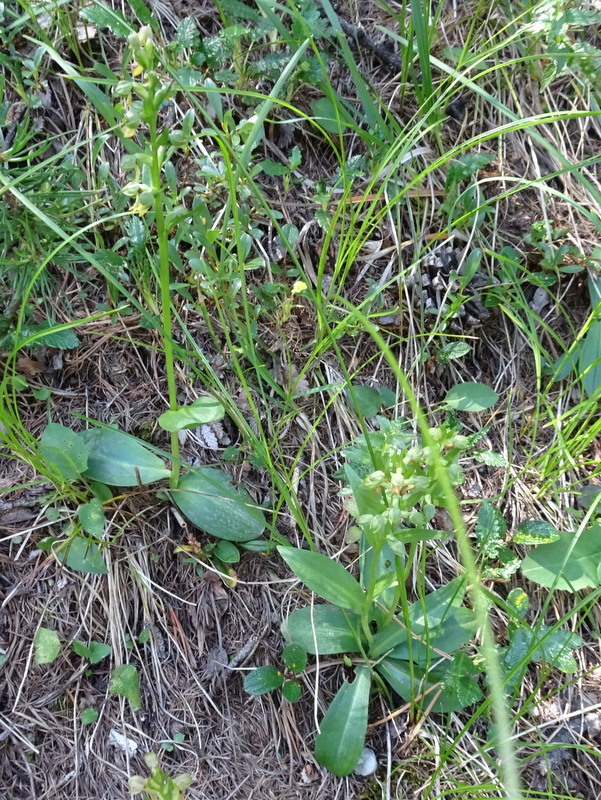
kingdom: Plantae
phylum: Tracheophyta
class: Liliopsida
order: Asparagales
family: Orchidaceae
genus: Dactylorhiza
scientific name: Dactylorhiza viridis
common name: Longbract frog orchid
